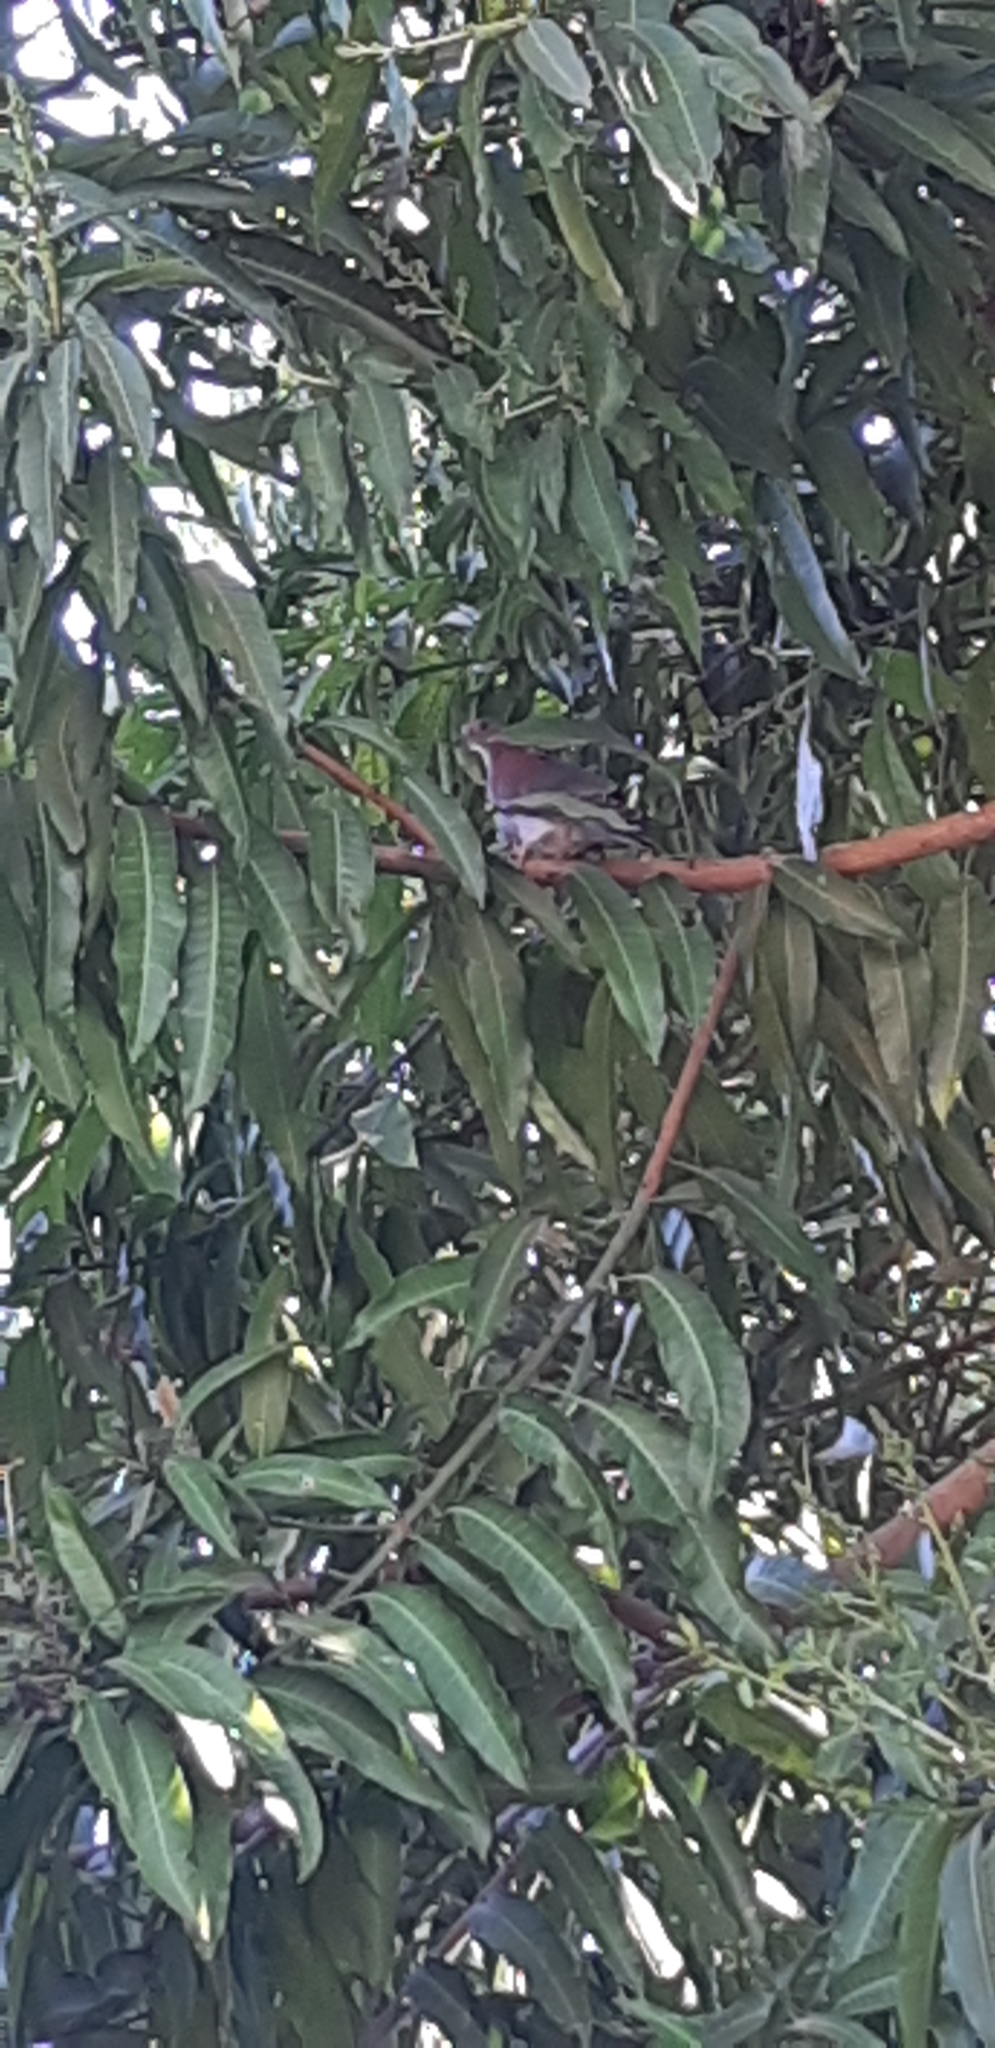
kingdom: Animalia
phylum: Chordata
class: Aves
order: Columbiformes
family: Columbidae
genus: Patagioenas
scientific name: Patagioenas cayennensis
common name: Pale-vented pigeon
